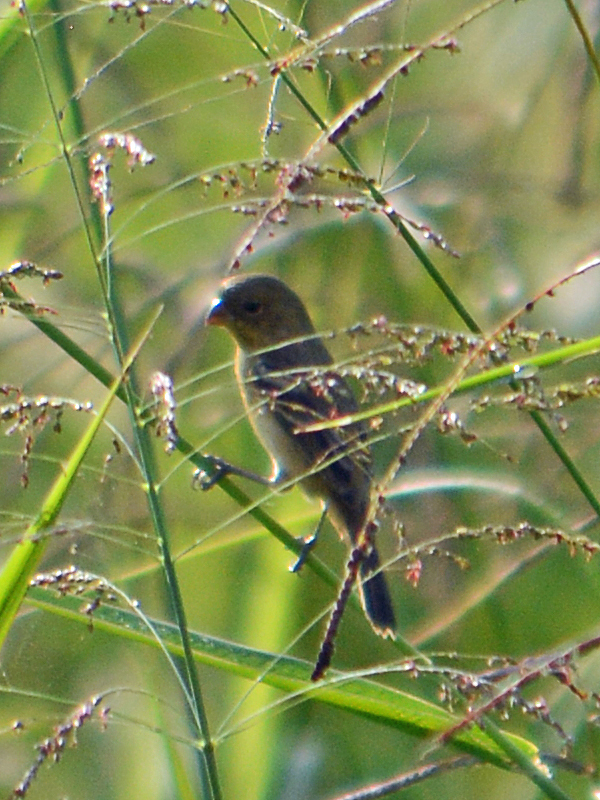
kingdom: Animalia
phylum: Chordata
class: Aves
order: Passeriformes
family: Thraupidae
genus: Sporophila
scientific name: Sporophila morelleti
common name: Morelet's seedeater
